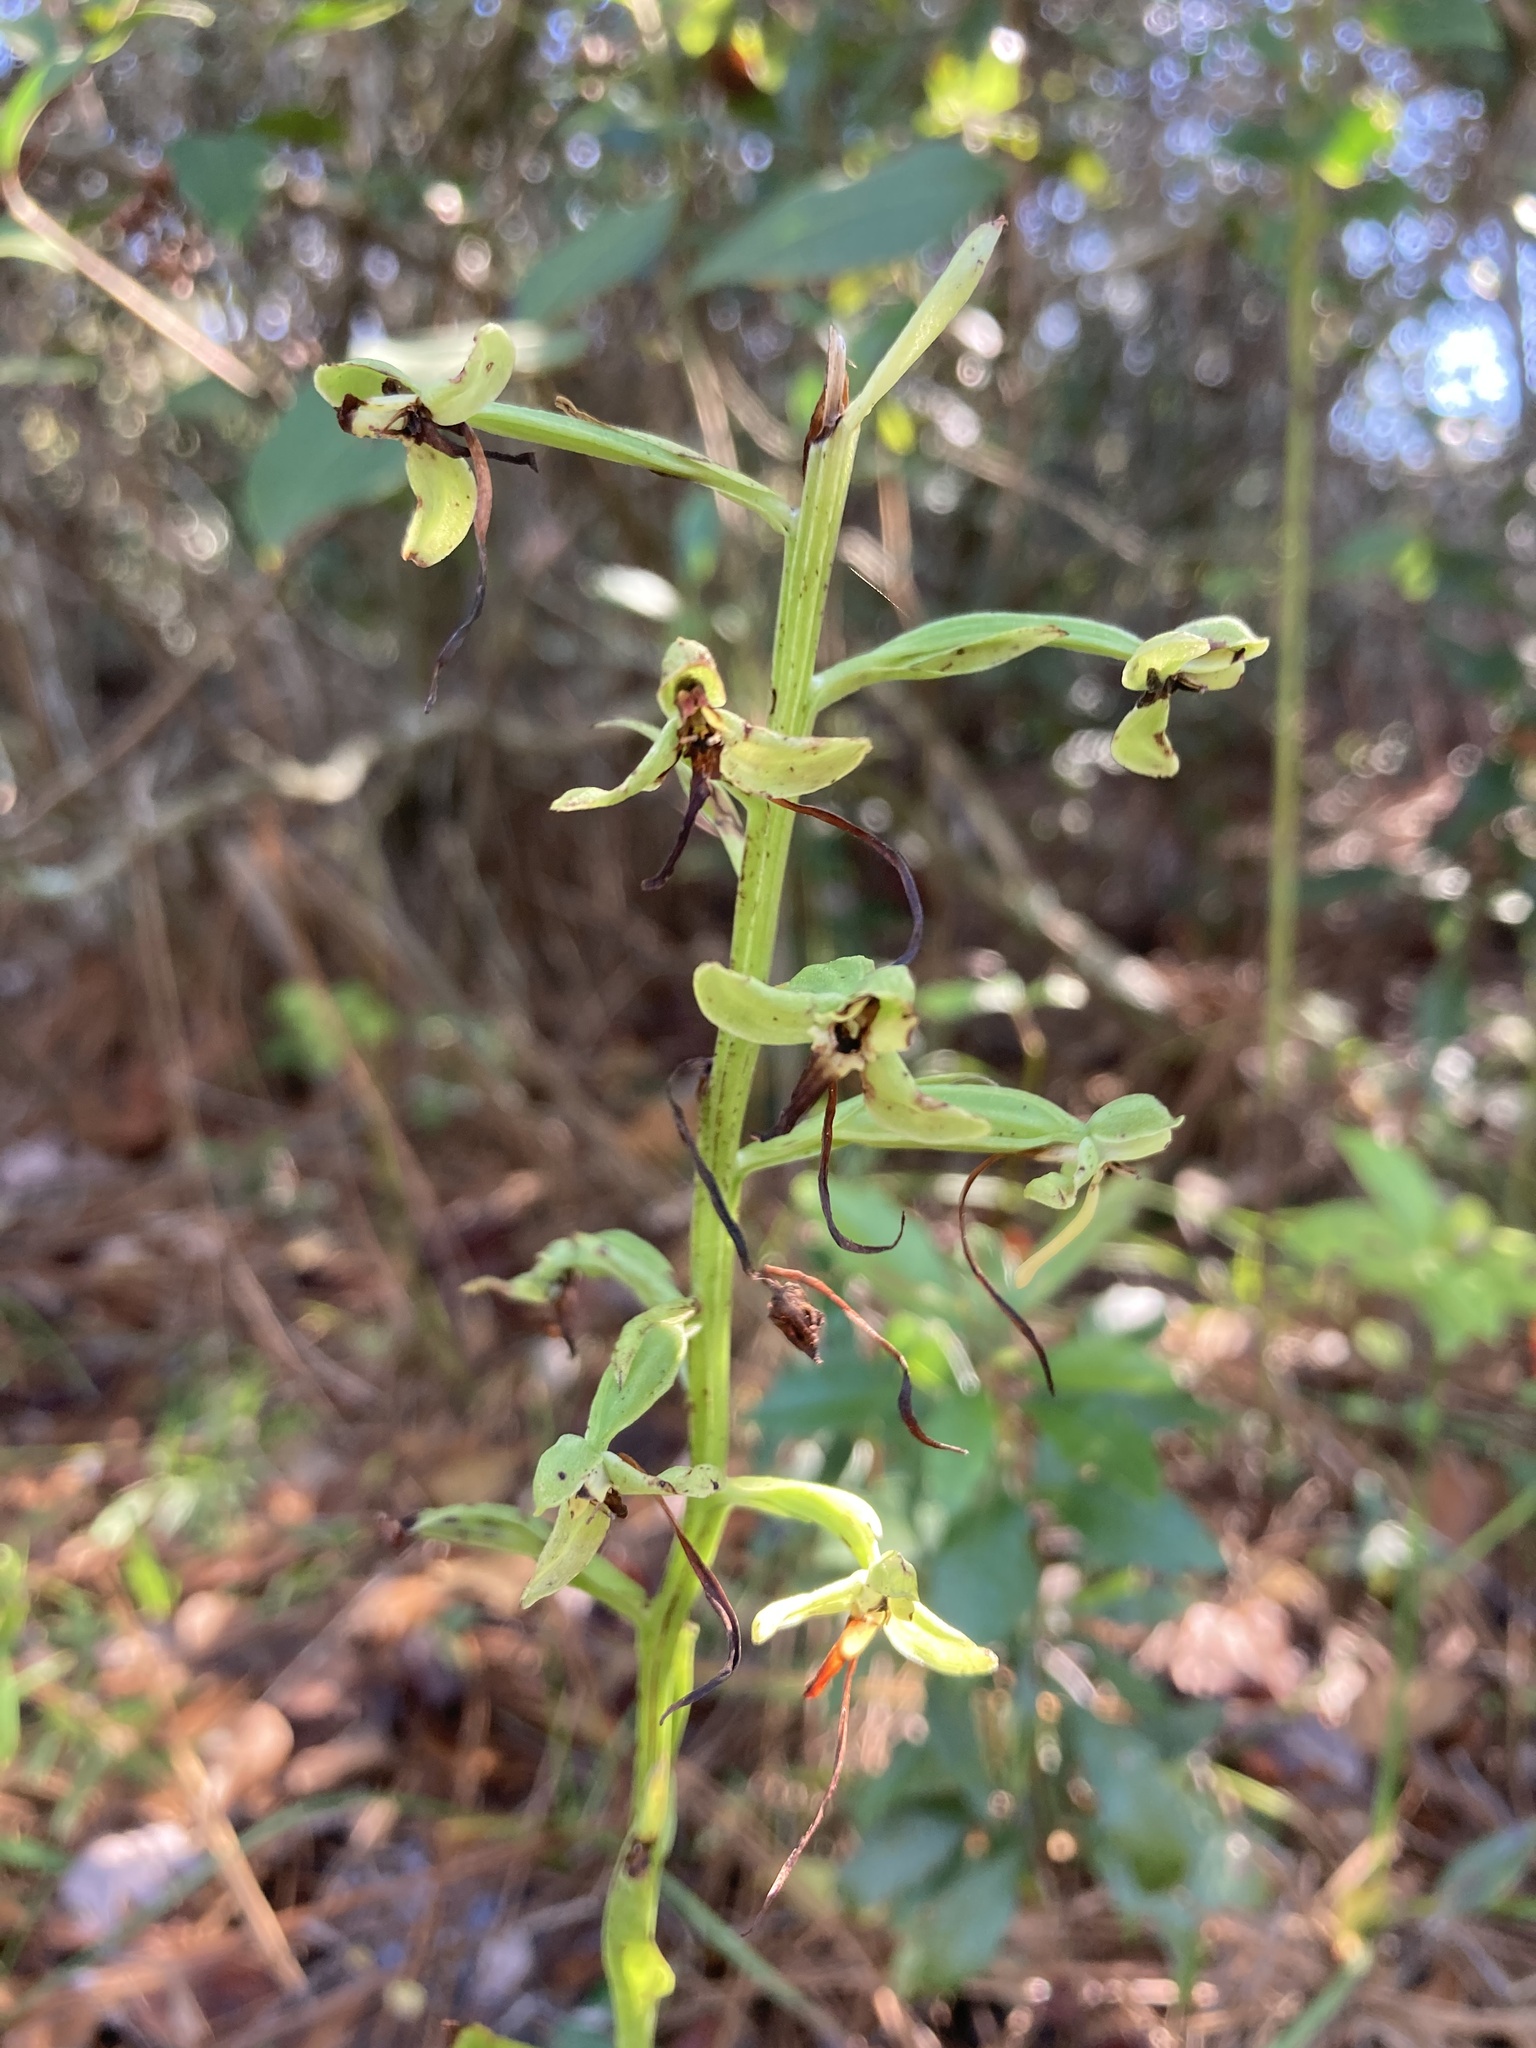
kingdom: Plantae
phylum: Tracheophyta
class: Liliopsida
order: Asparagales
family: Orchidaceae
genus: Habenaria
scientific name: Habenaria floribunda
